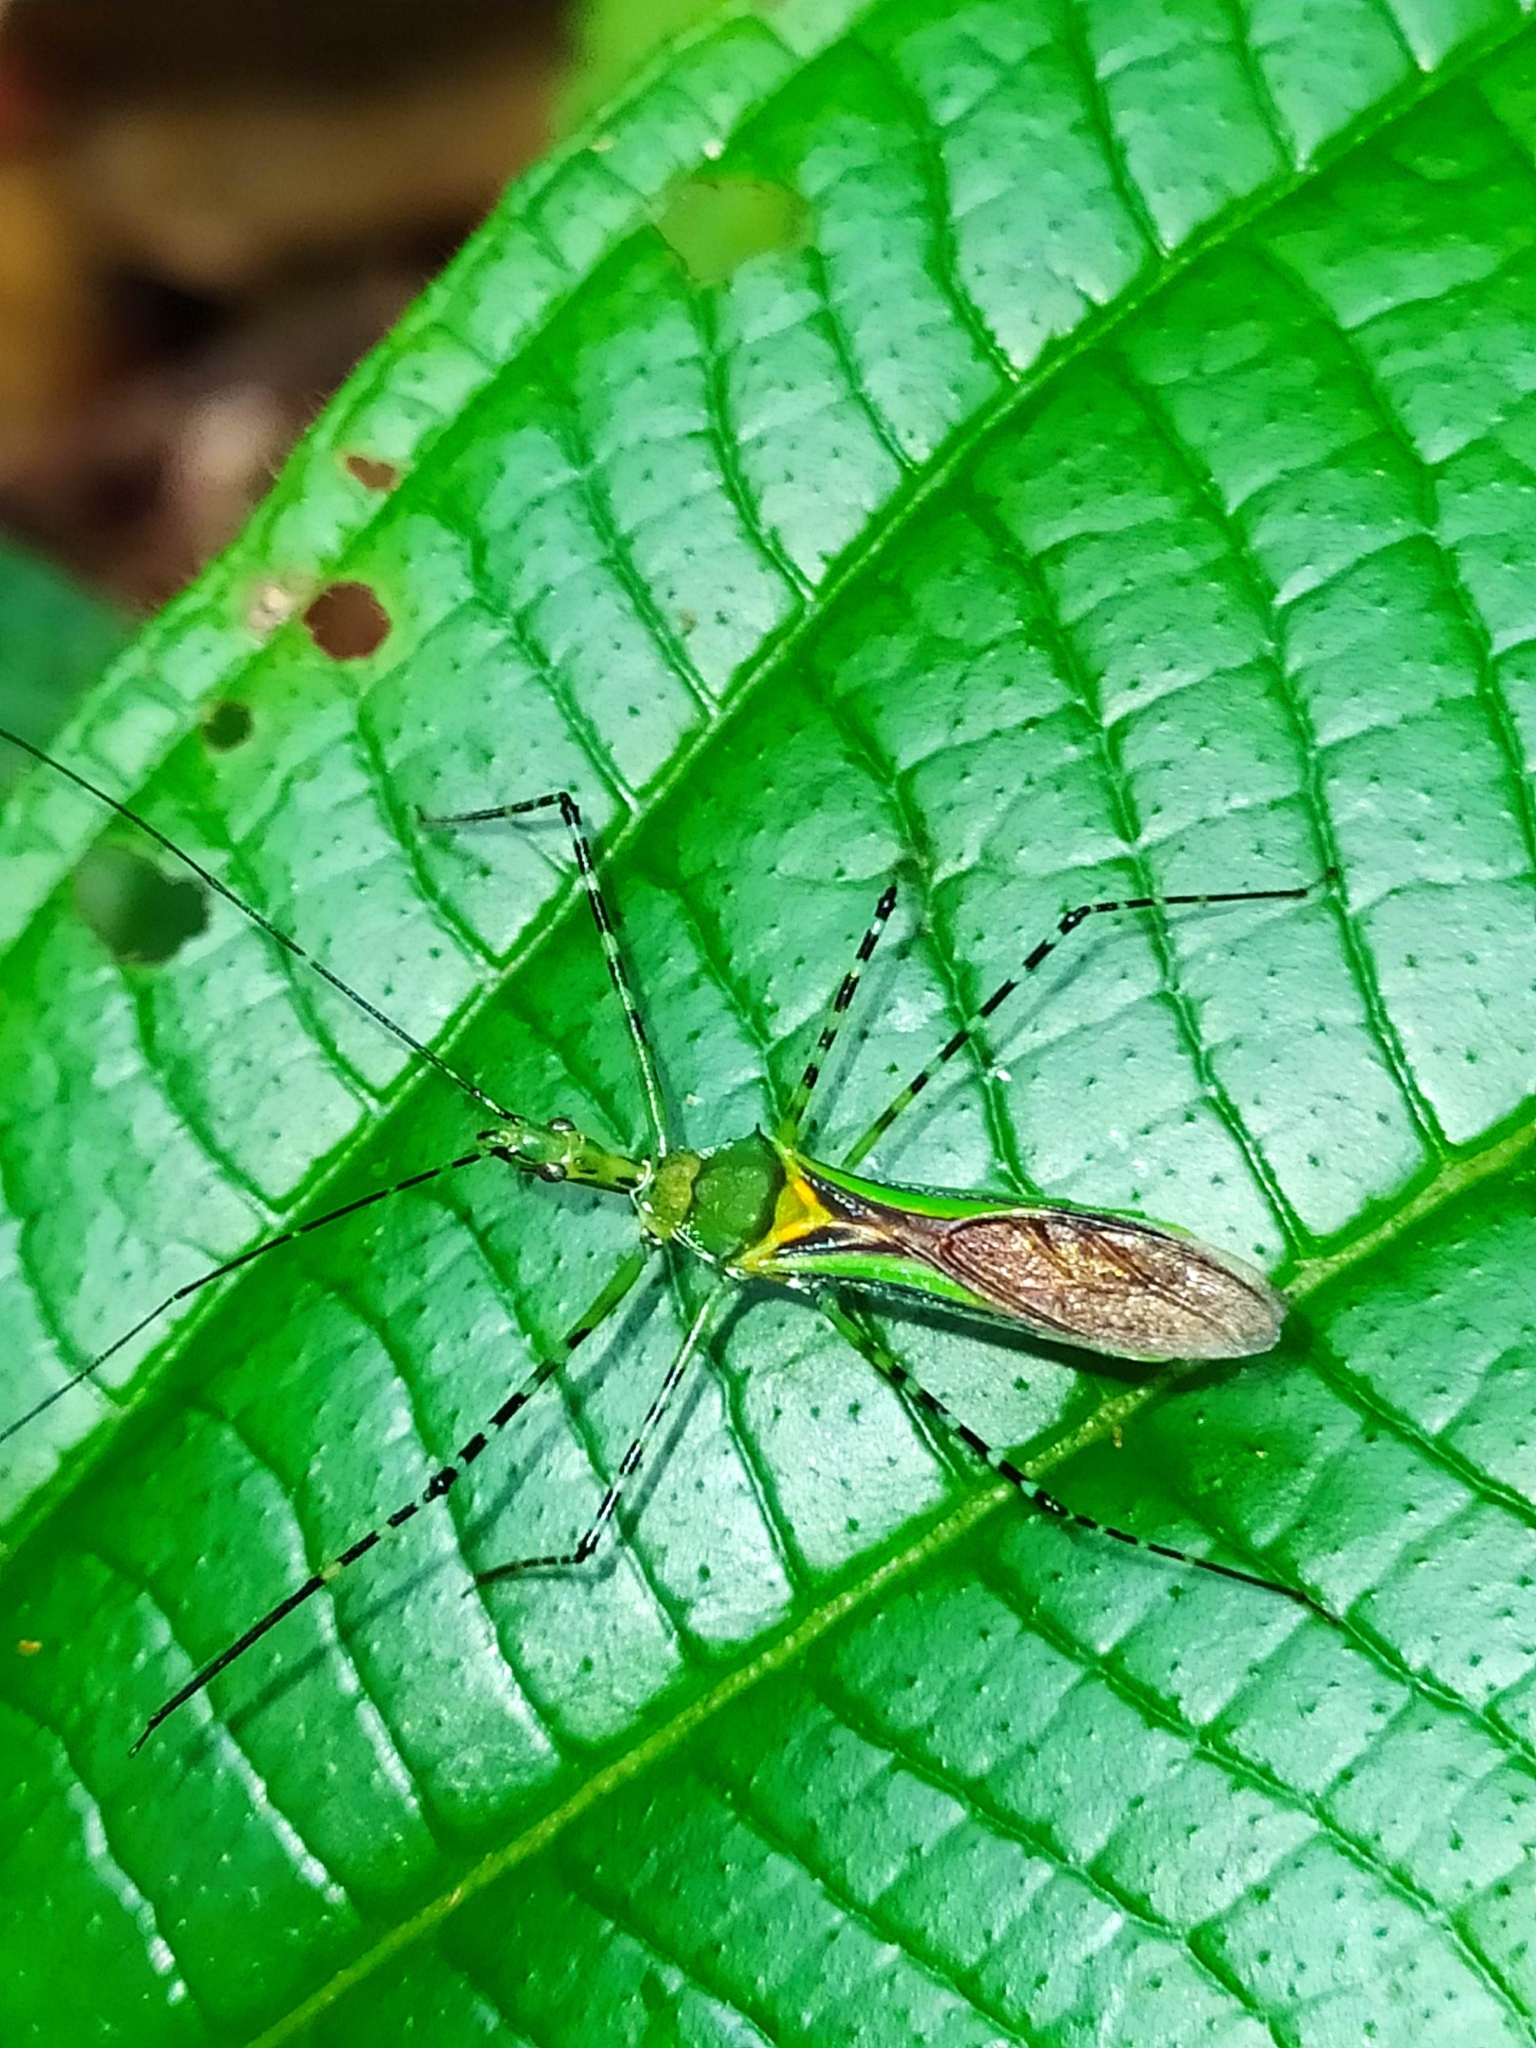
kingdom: Animalia
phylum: Arthropoda
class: Insecta
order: Hemiptera
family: Reduviidae
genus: Zelus
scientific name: Zelus annulosus
